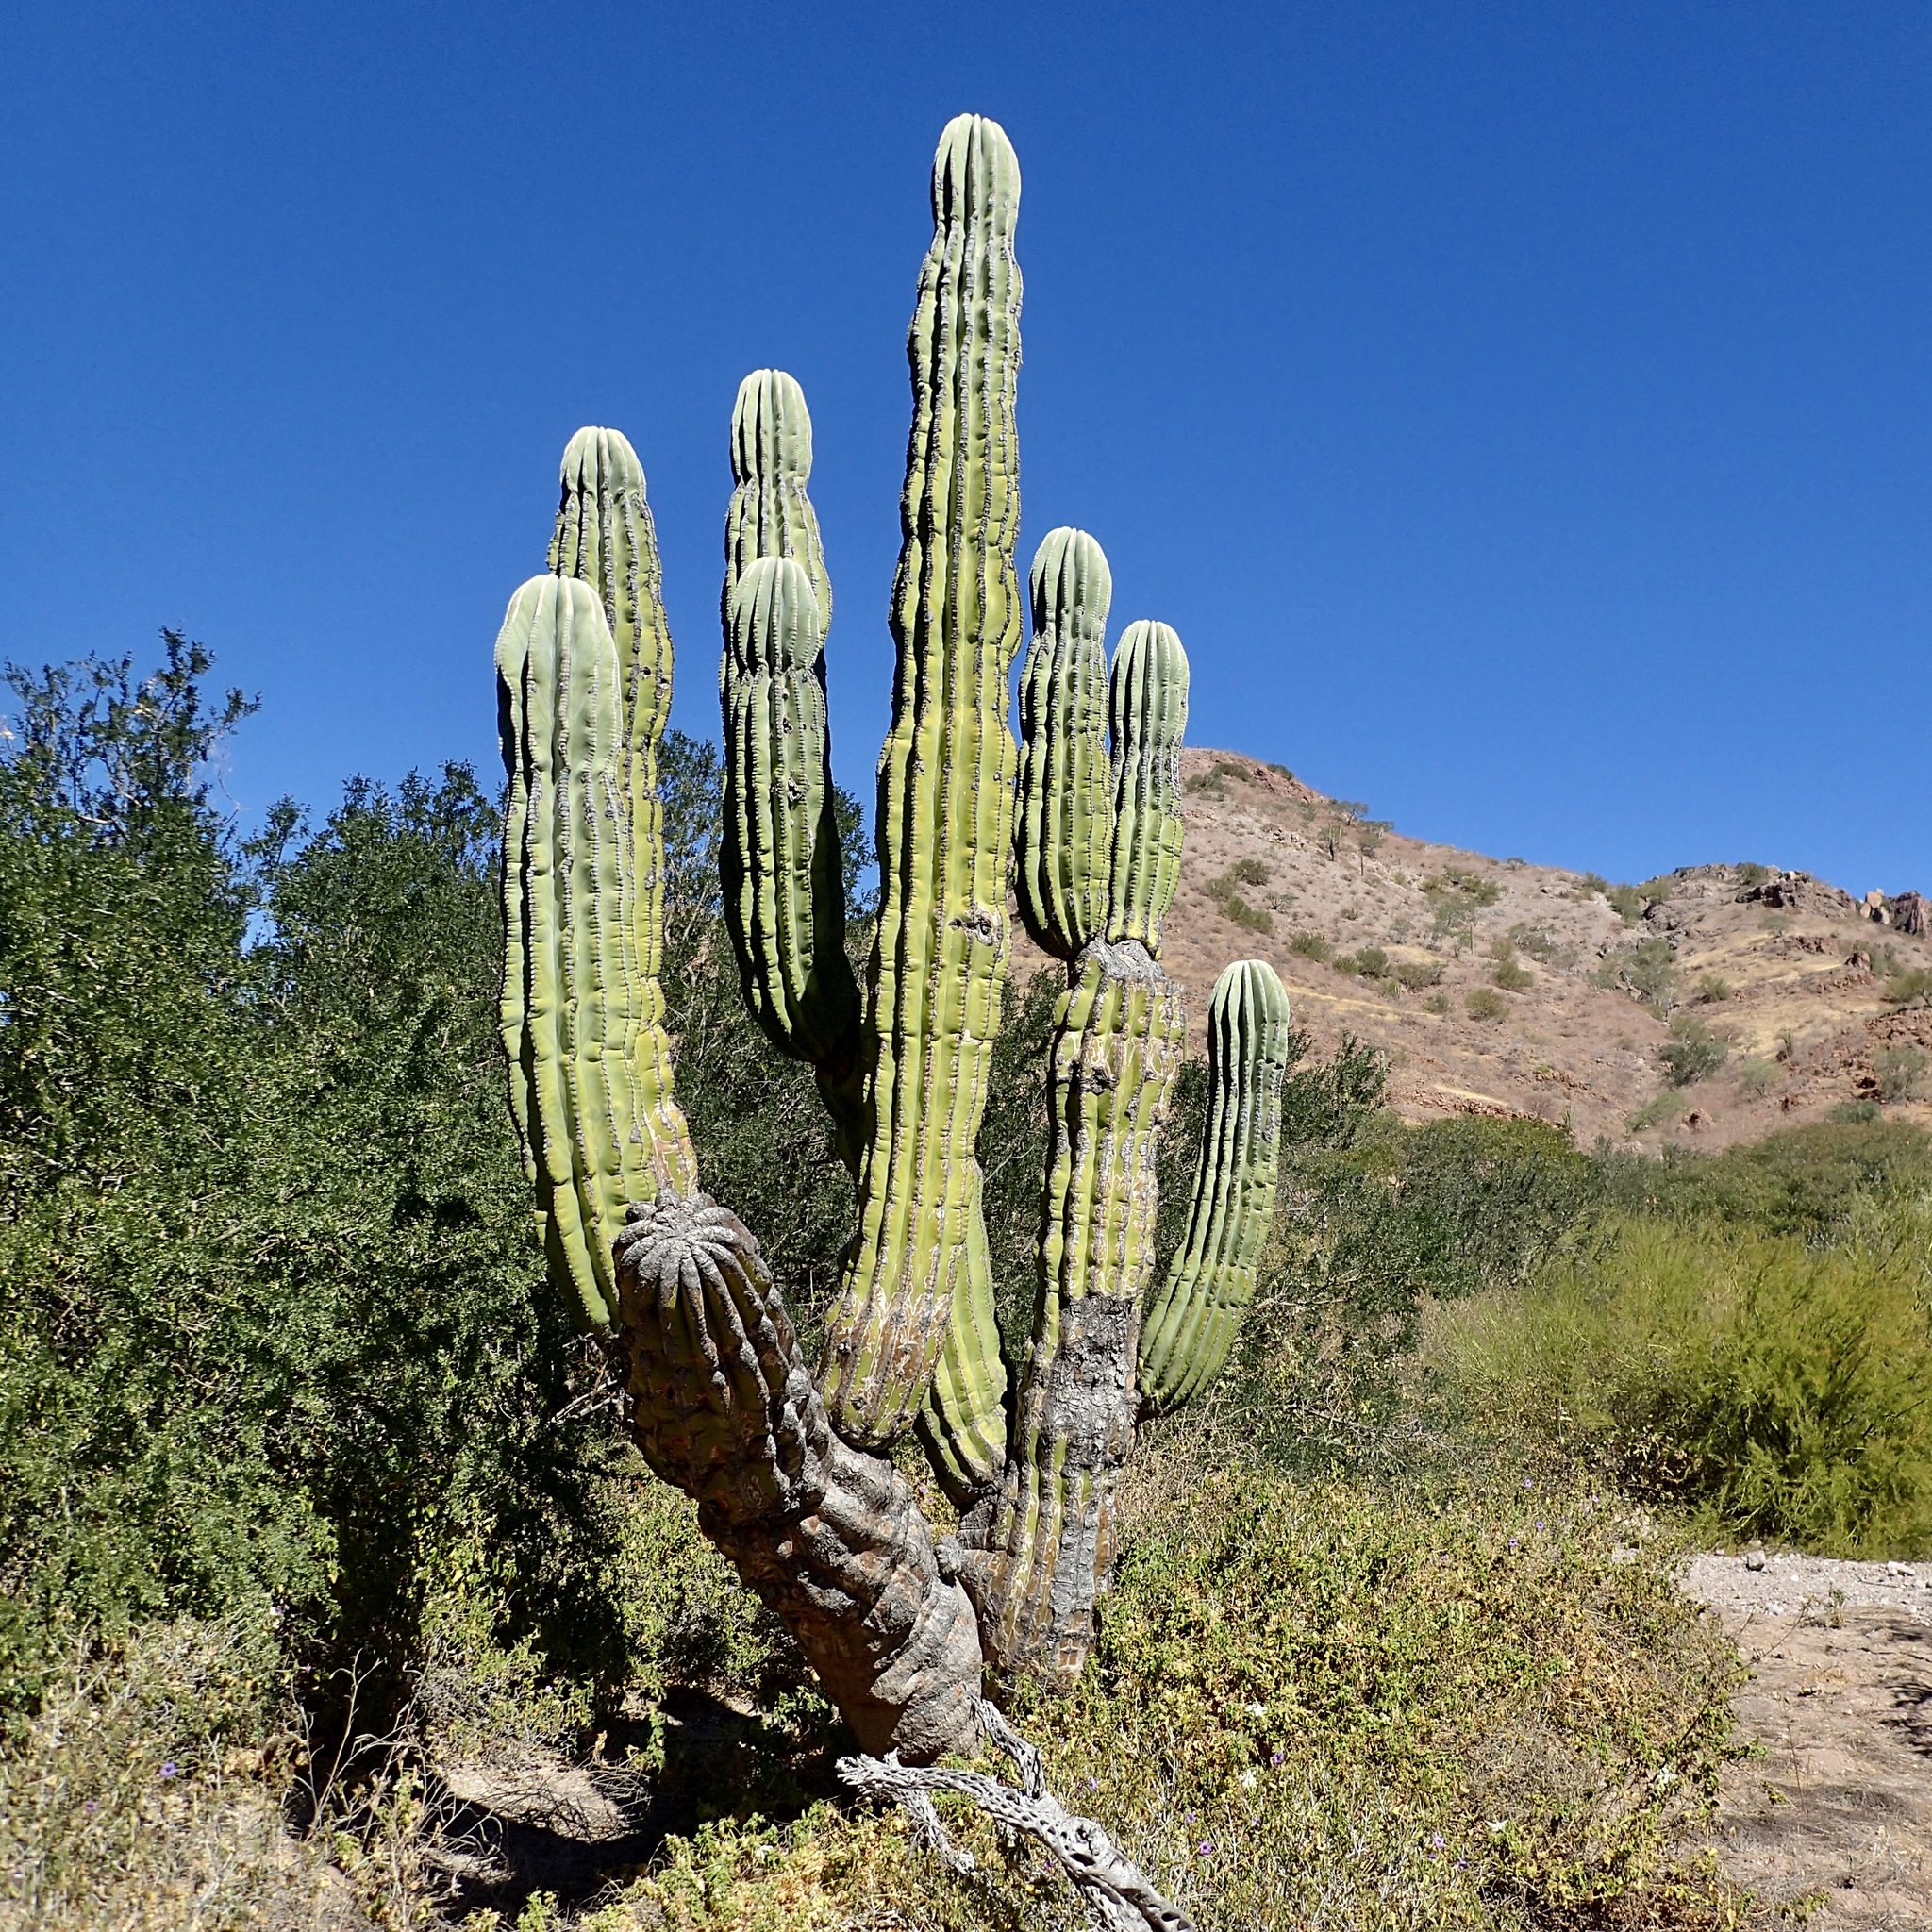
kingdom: Plantae
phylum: Tracheophyta
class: Magnoliopsida
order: Caryophyllales
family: Cactaceae
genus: Pachycereus
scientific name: Pachycereus pringlei
